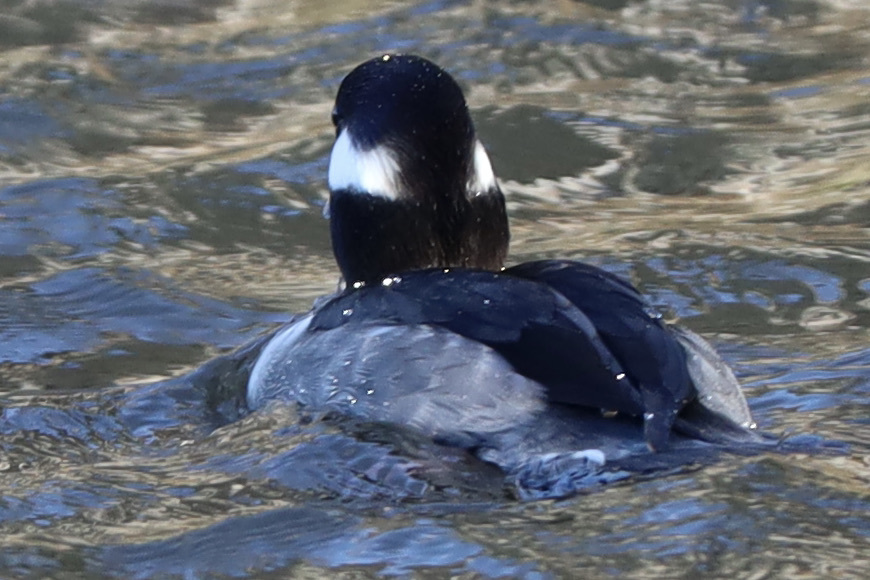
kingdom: Animalia
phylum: Chordata
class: Aves
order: Anseriformes
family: Anatidae
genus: Bucephala
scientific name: Bucephala albeola
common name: Bufflehead
